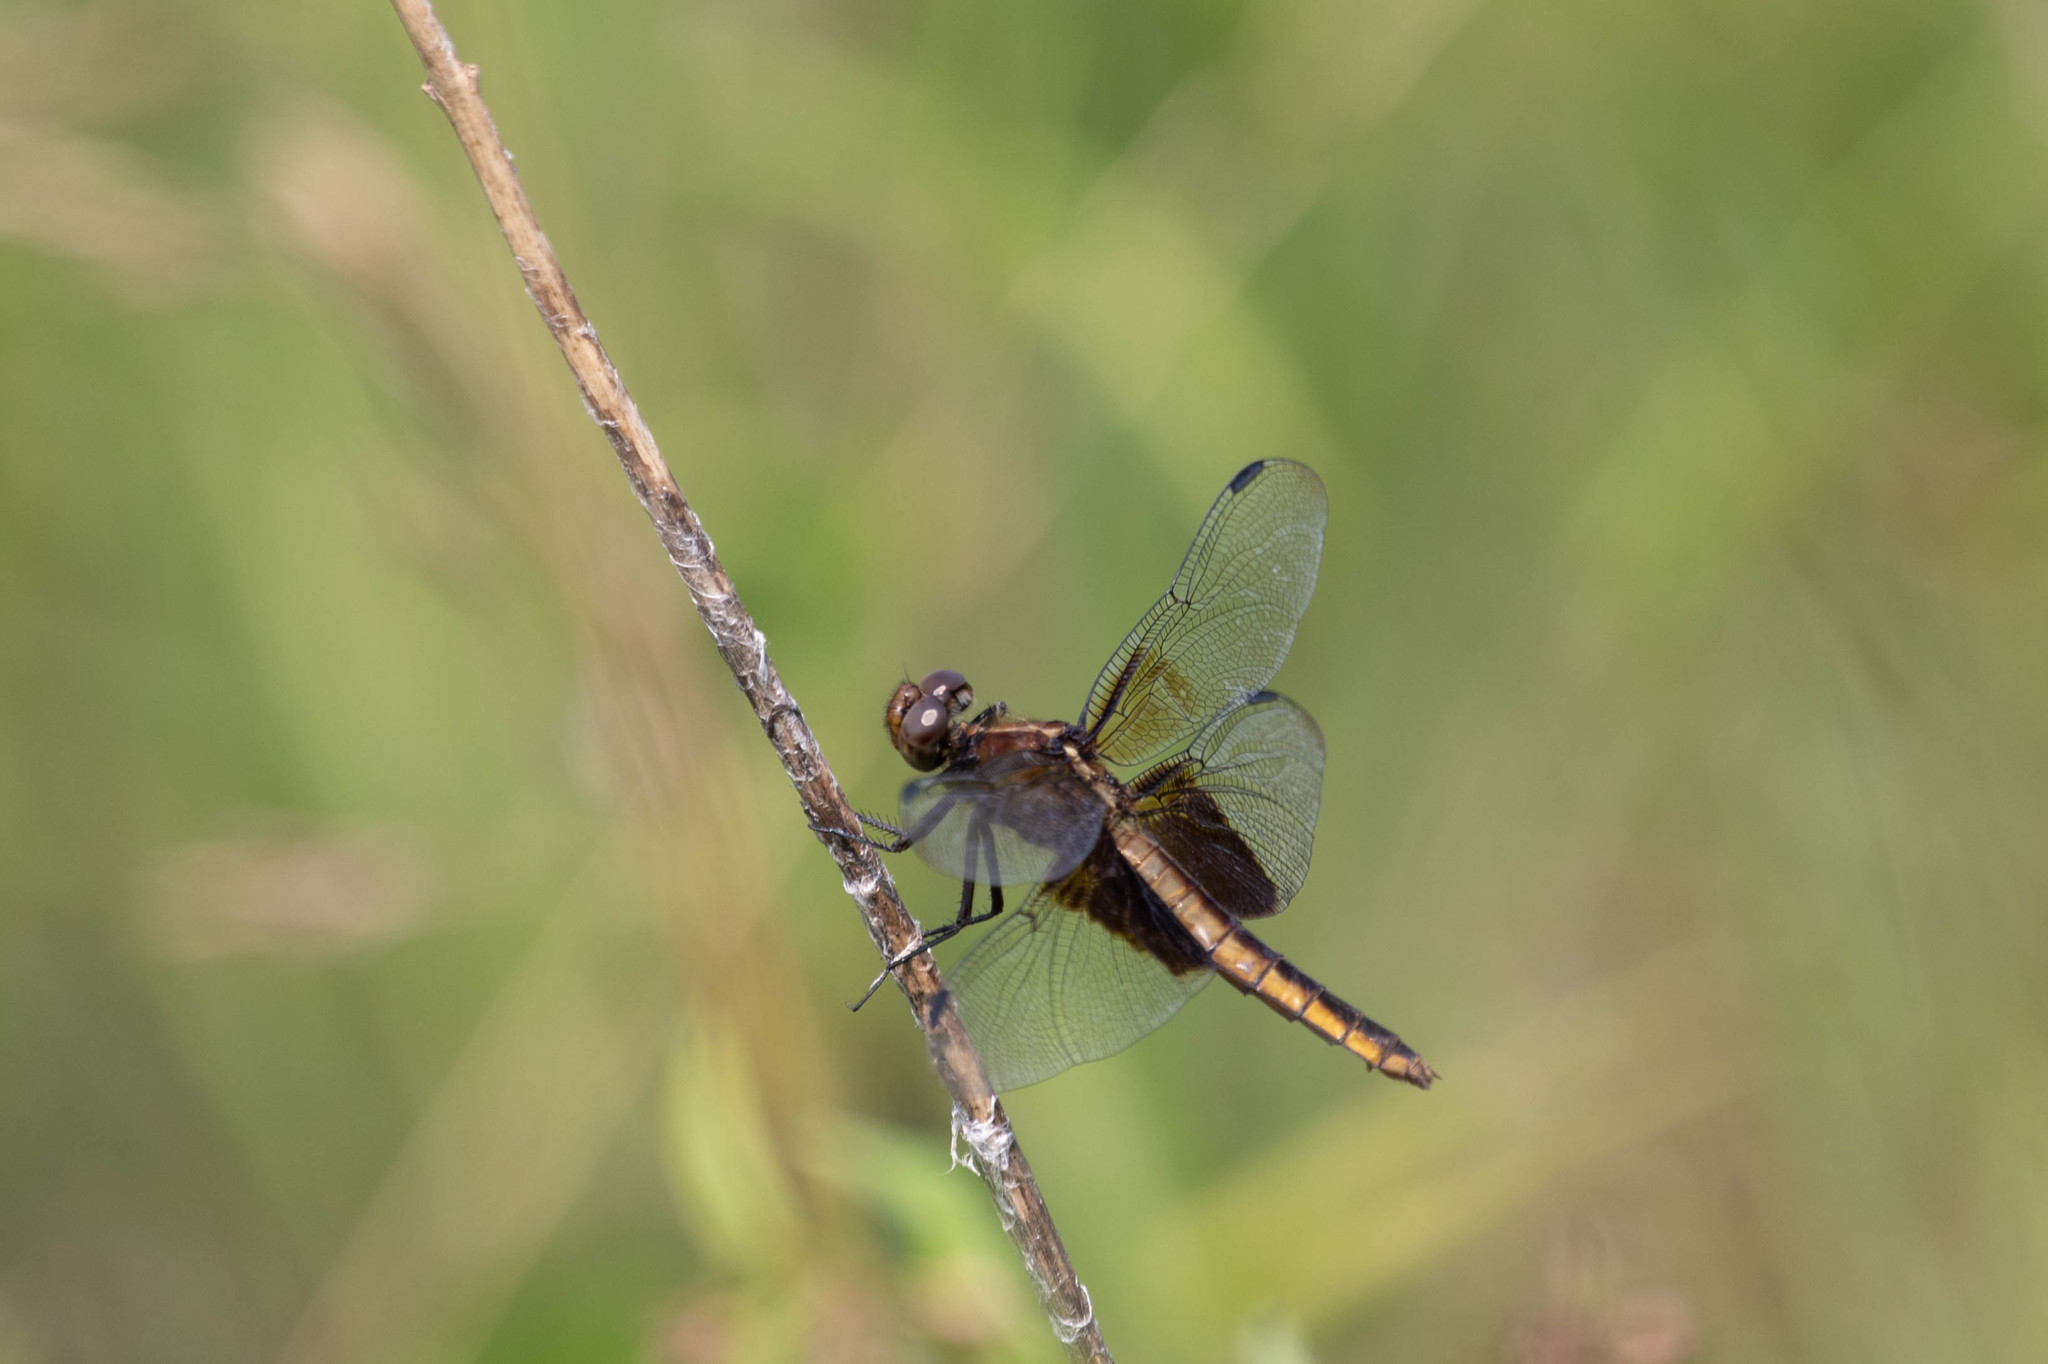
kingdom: Animalia
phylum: Arthropoda
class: Insecta
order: Odonata
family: Libellulidae
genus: Libellula
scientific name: Libellula luctuosa
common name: Widow skimmer
